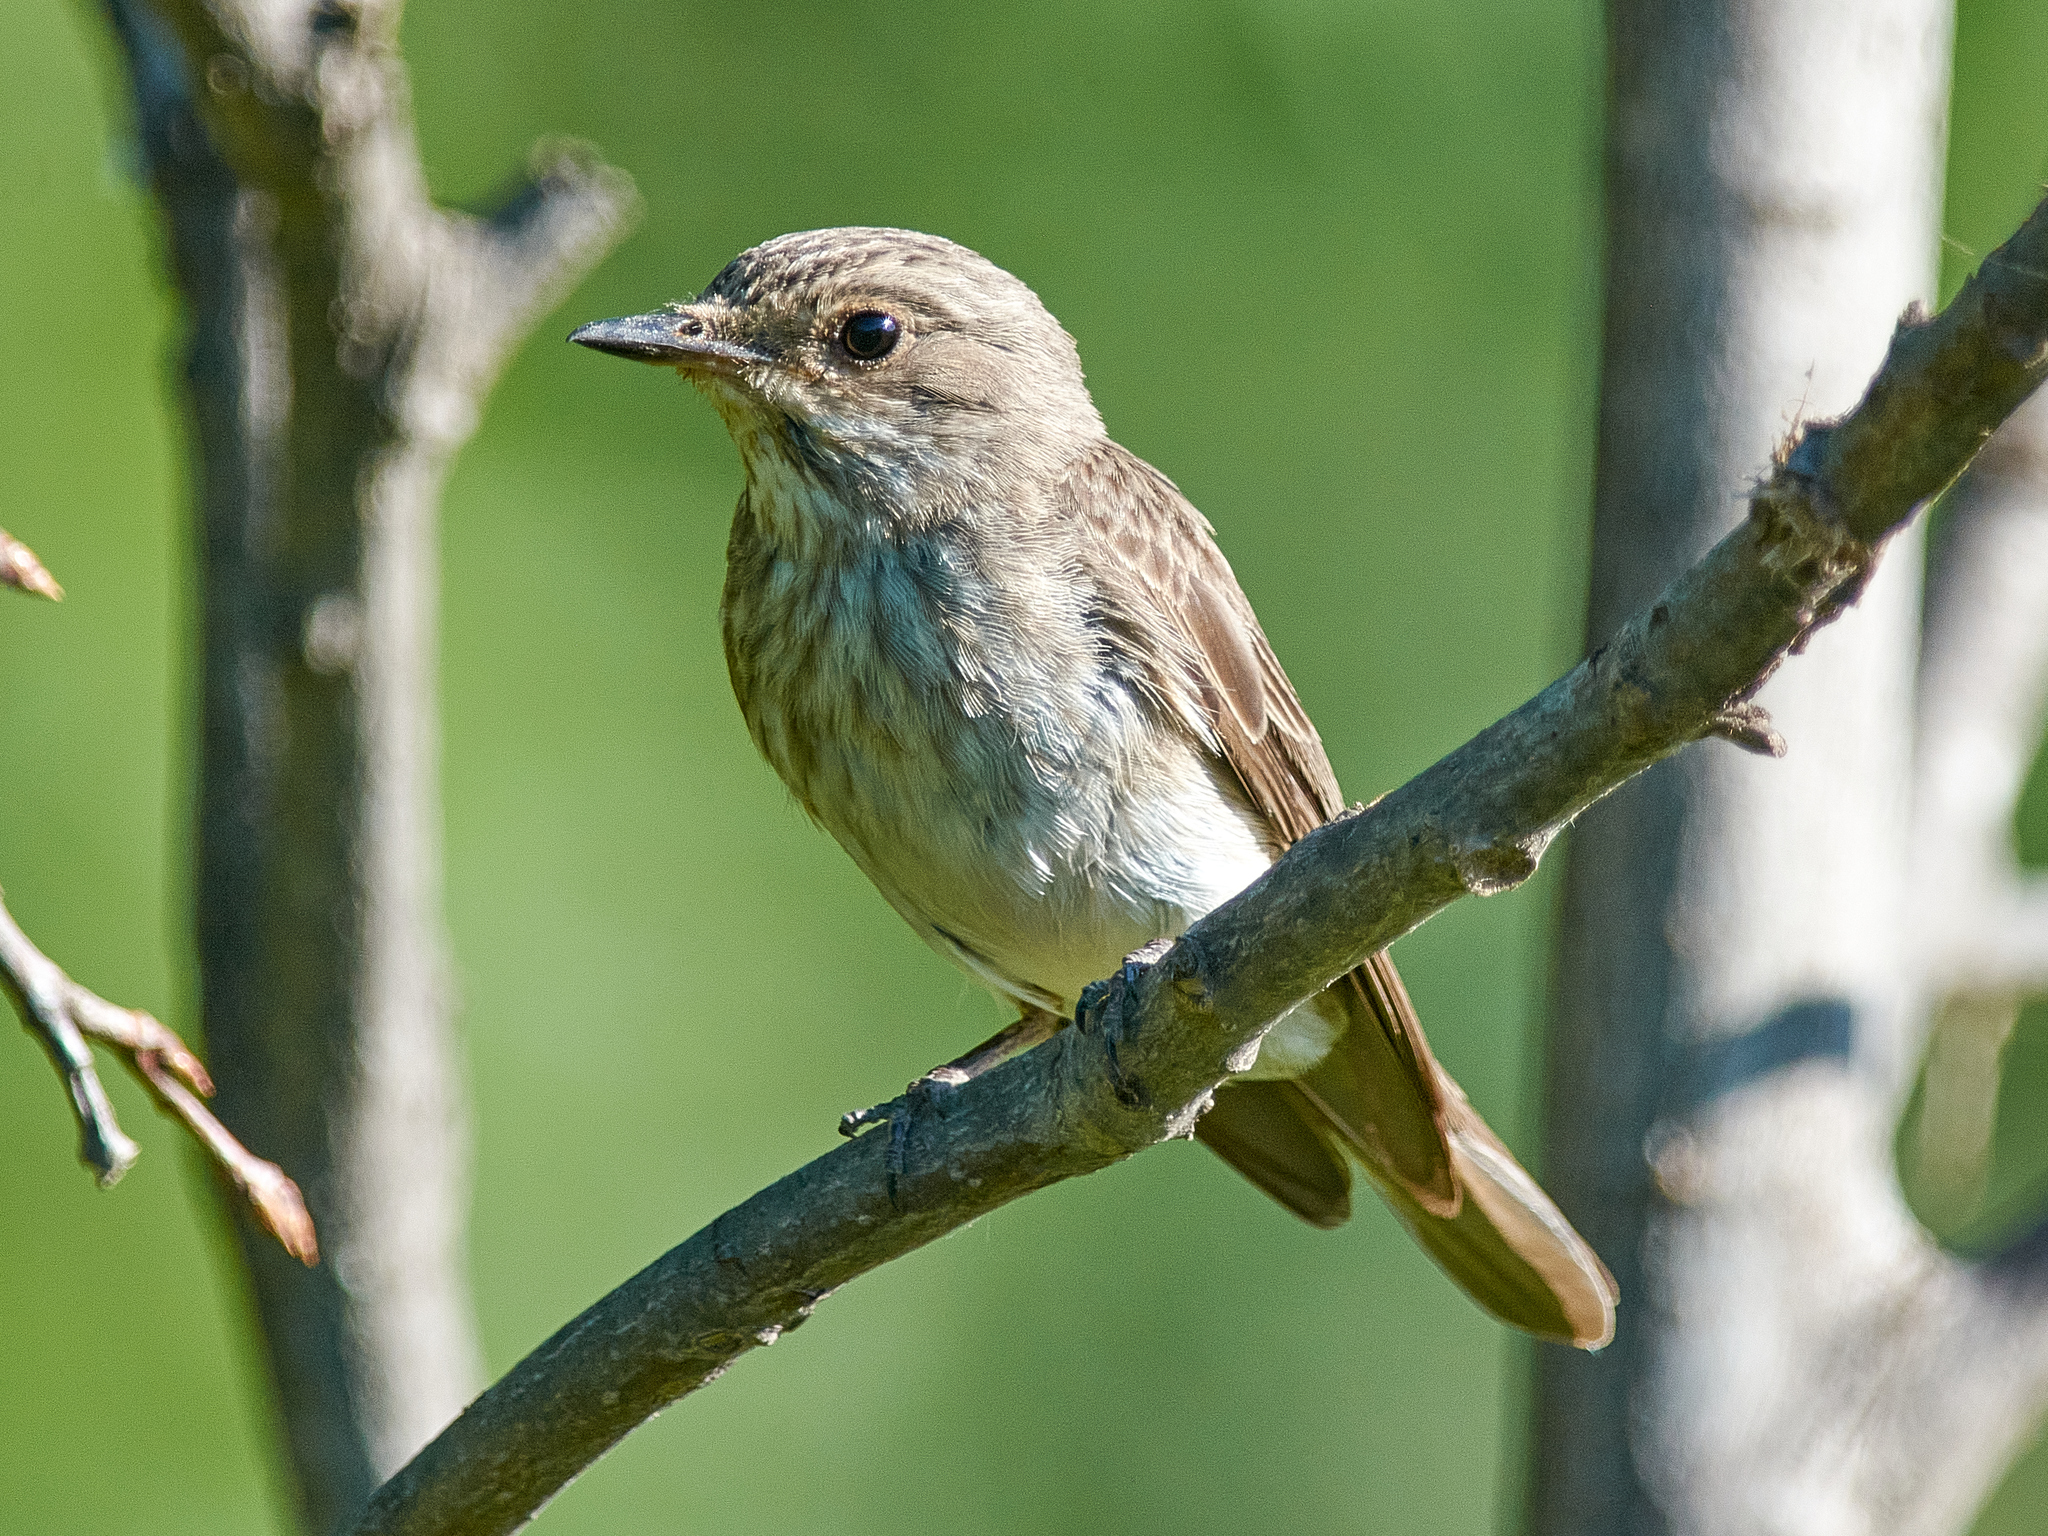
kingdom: Animalia
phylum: Chordata
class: Aves
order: Passeriformes
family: Muscicapidae
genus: Muscicapa
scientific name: Muscicapa striata
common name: Spotted flycatcher
